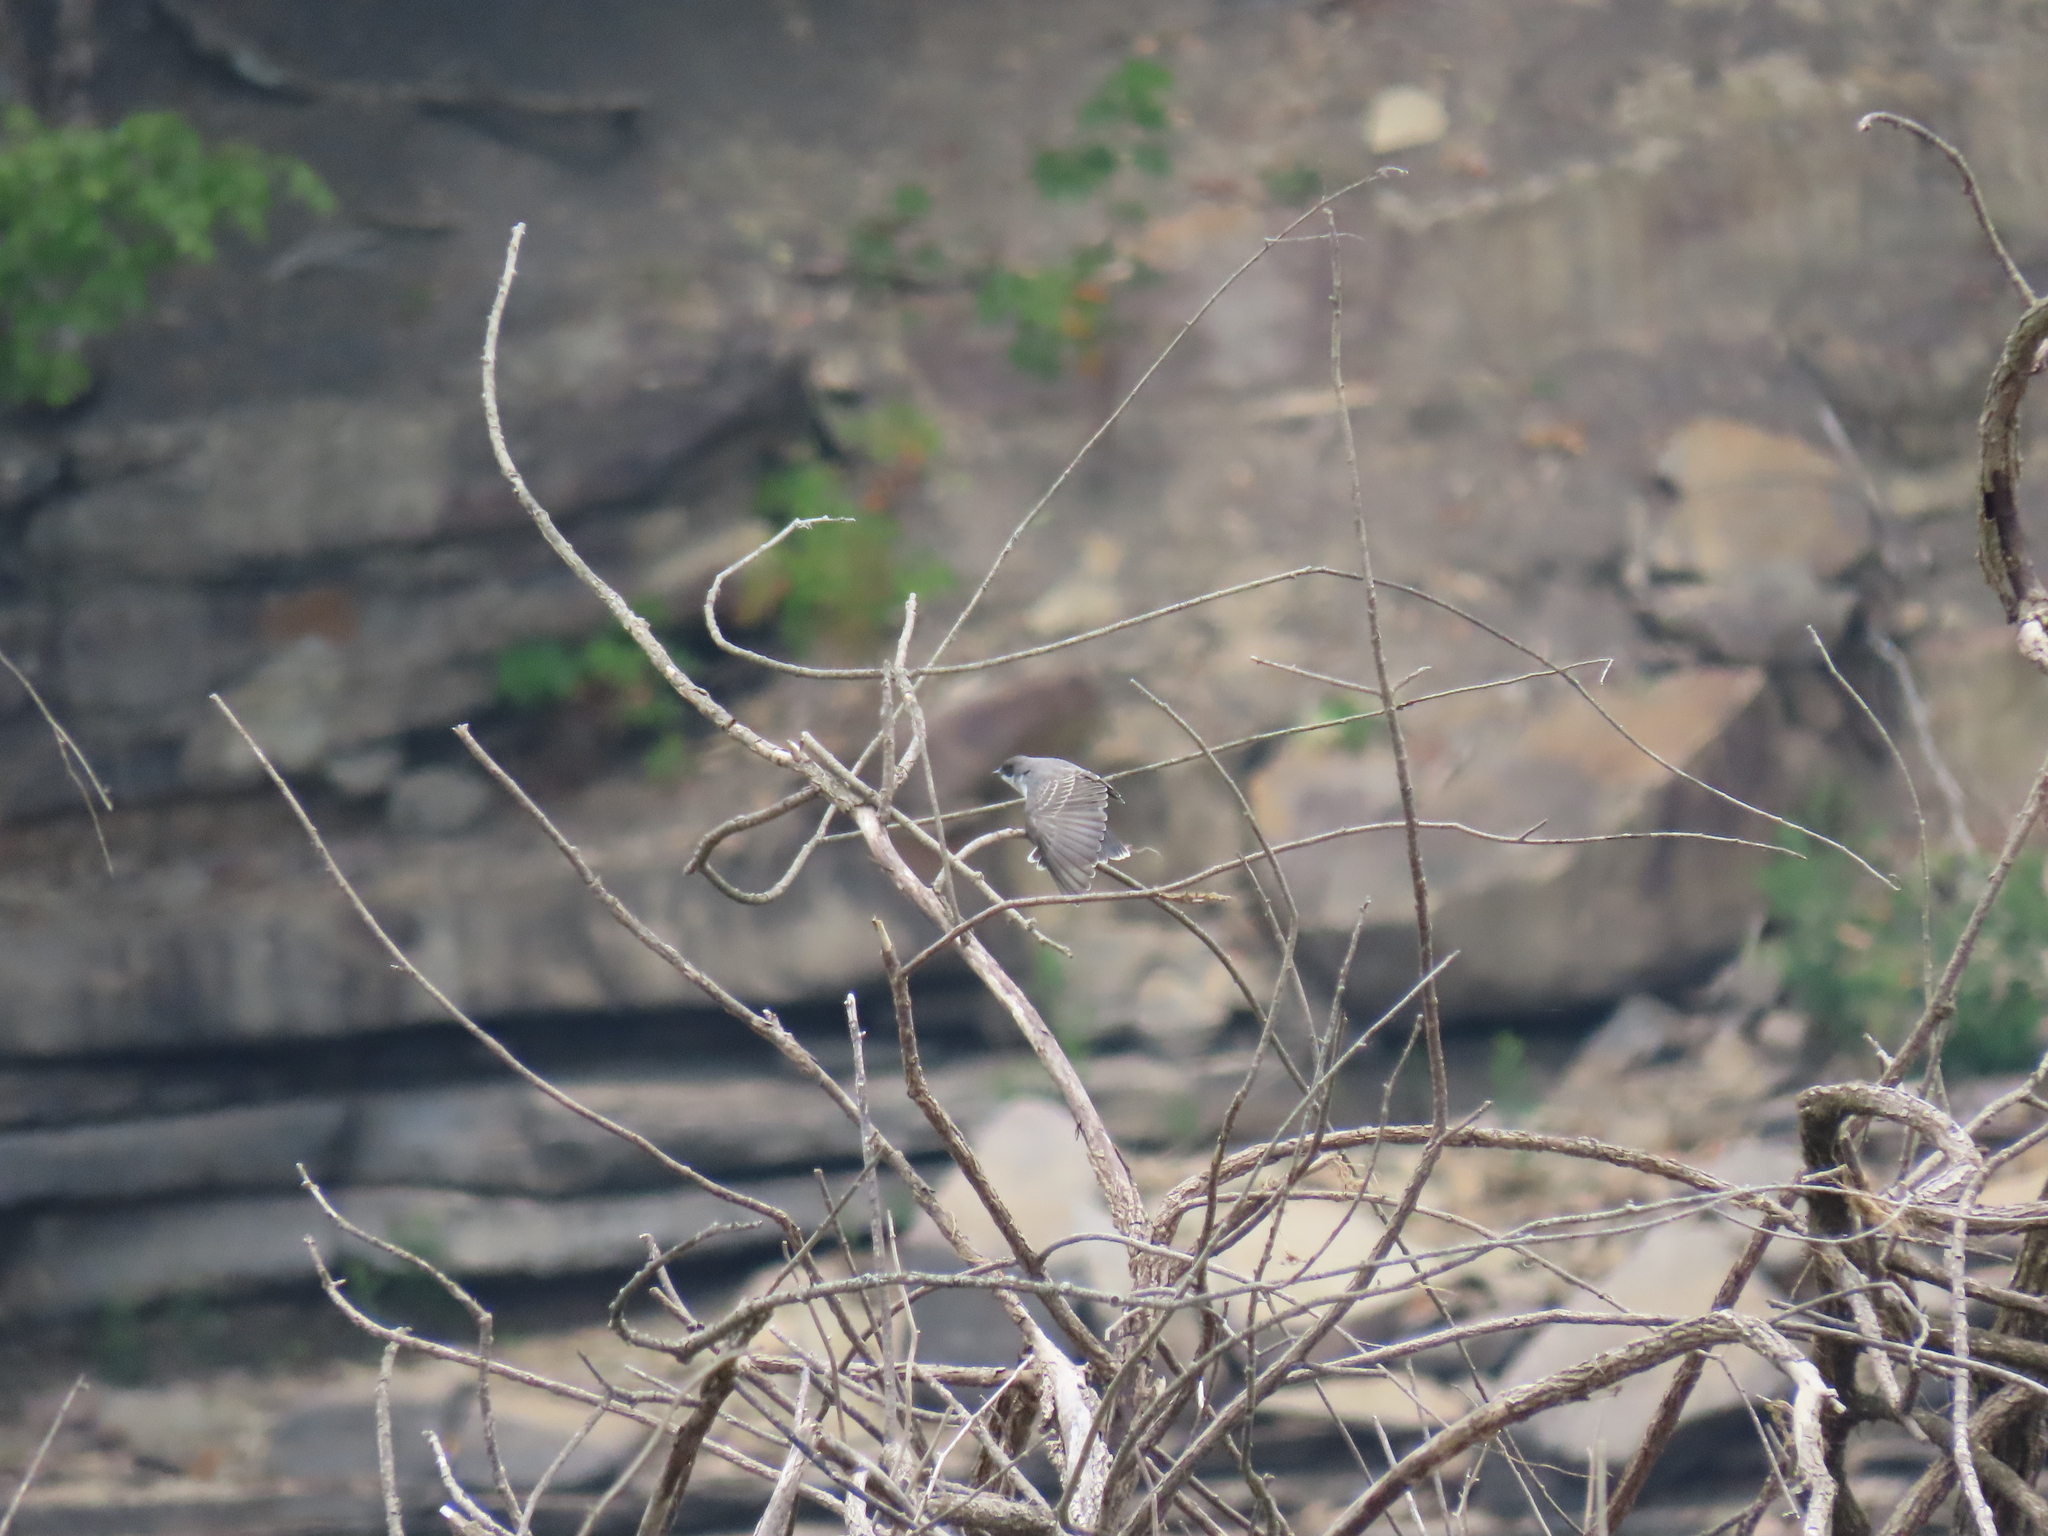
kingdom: Animalia
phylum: Chordata
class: Aves
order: Passeriformes
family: Tyrannidae
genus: Tyrannus
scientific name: Tyrannus tyrannus
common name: Eastern kingbird
